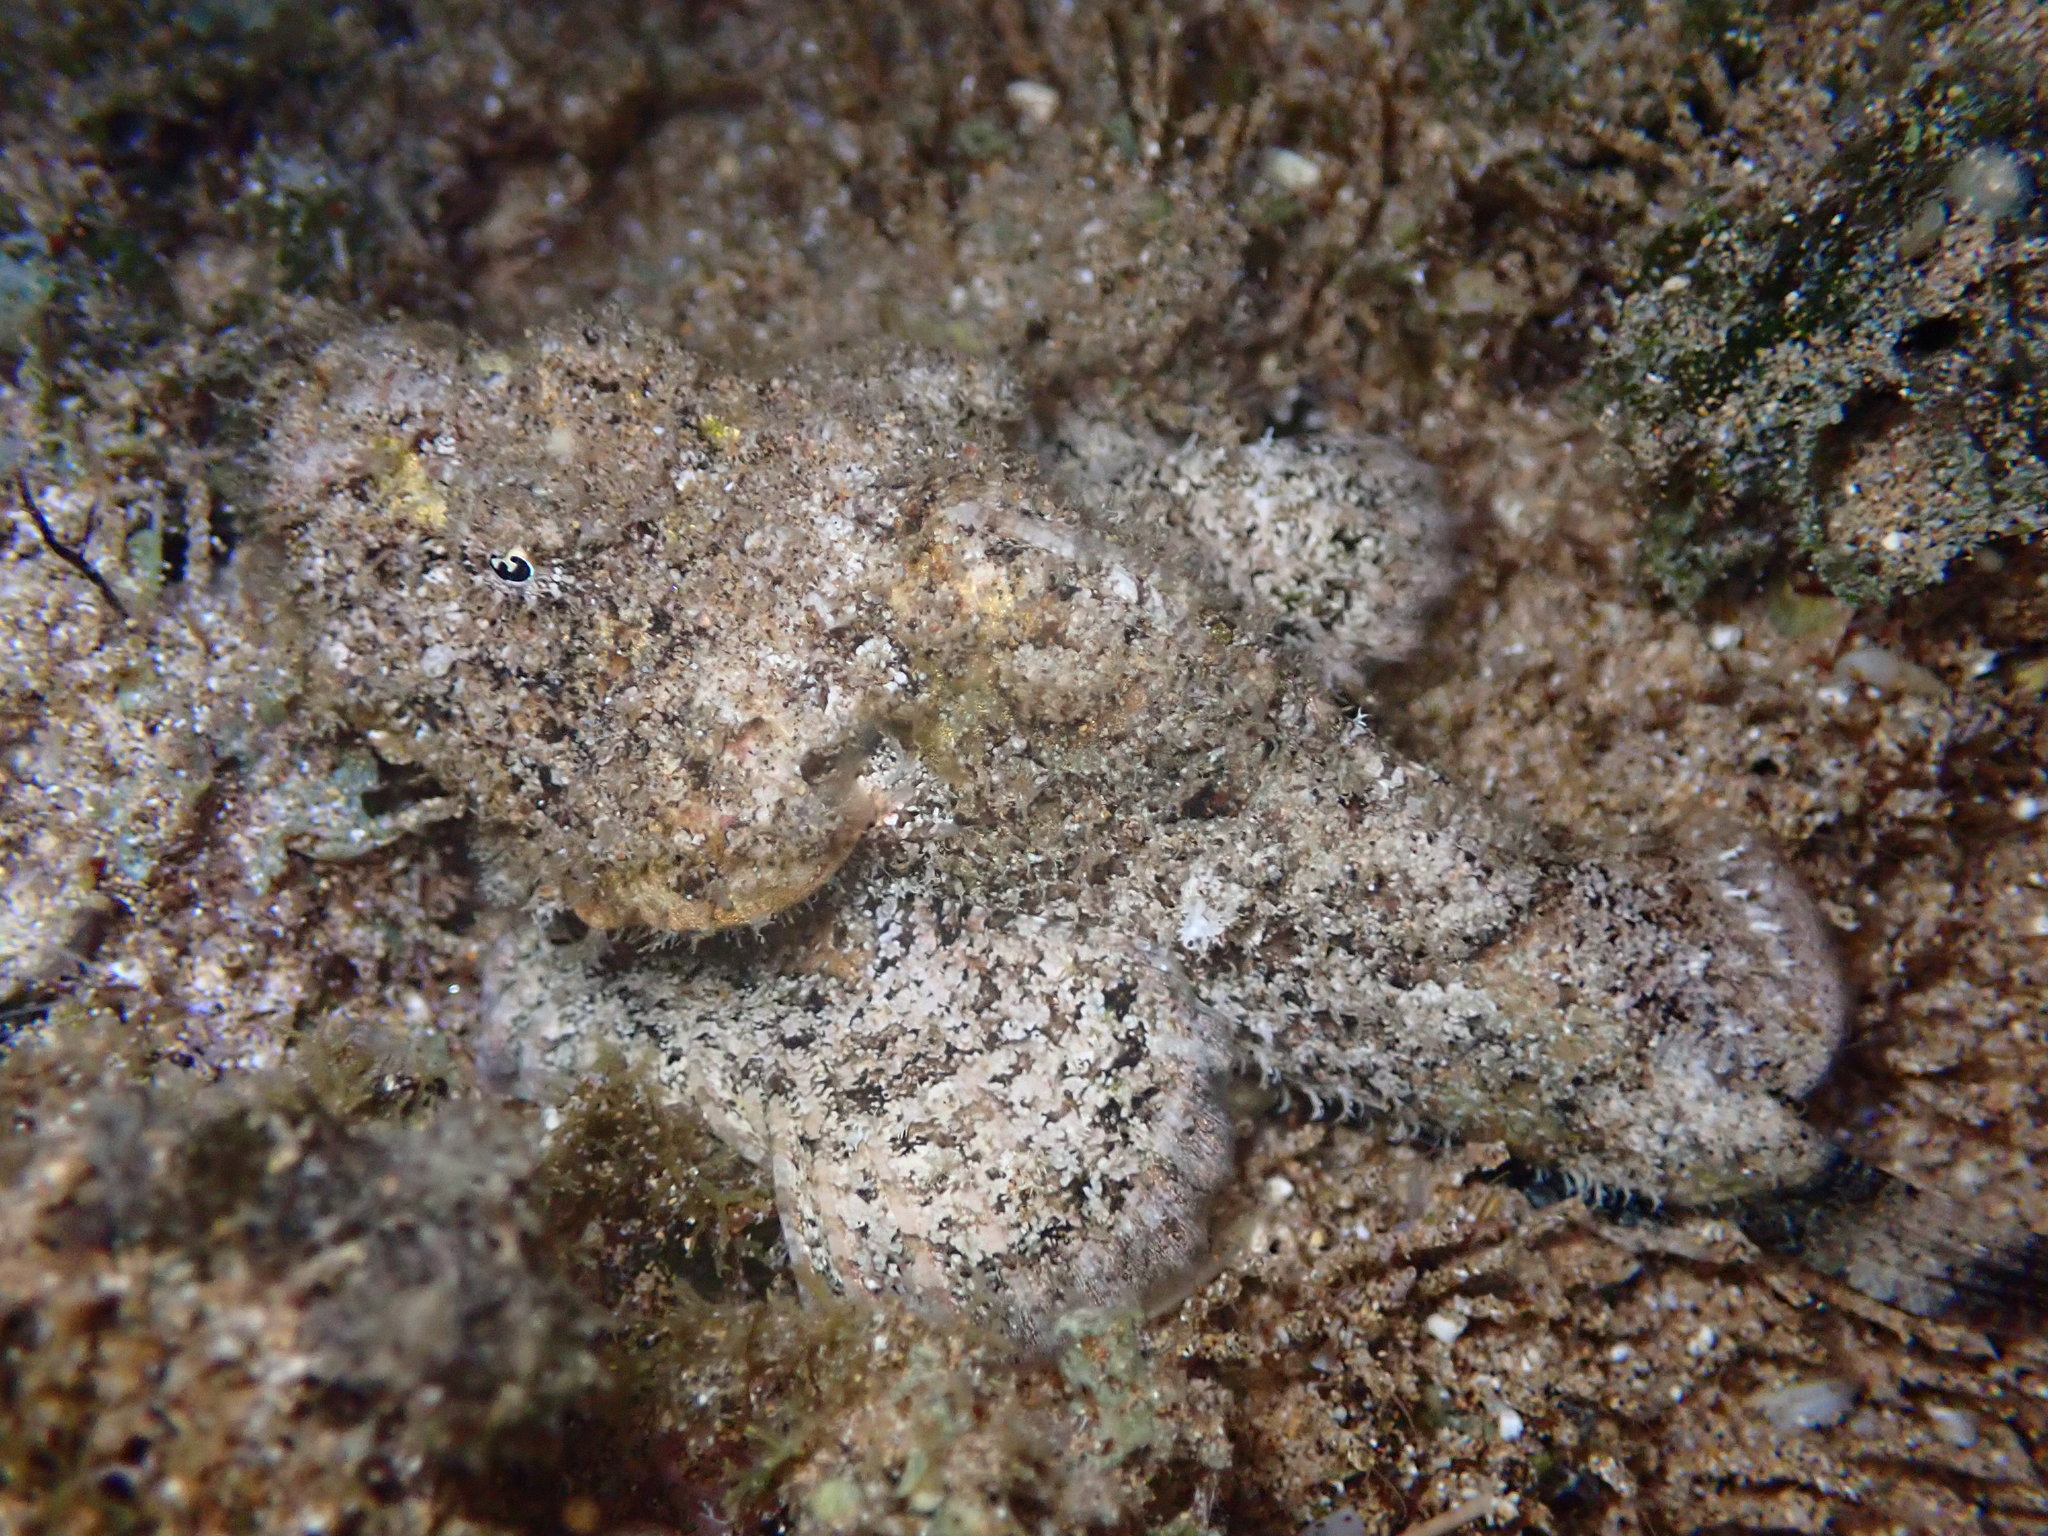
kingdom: Animalia
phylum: Chordata
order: Scorpaeniformes
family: Scorpaenidae
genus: Scorpaenopsis
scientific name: Scorpaenopsis diabolus
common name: False stonefish
